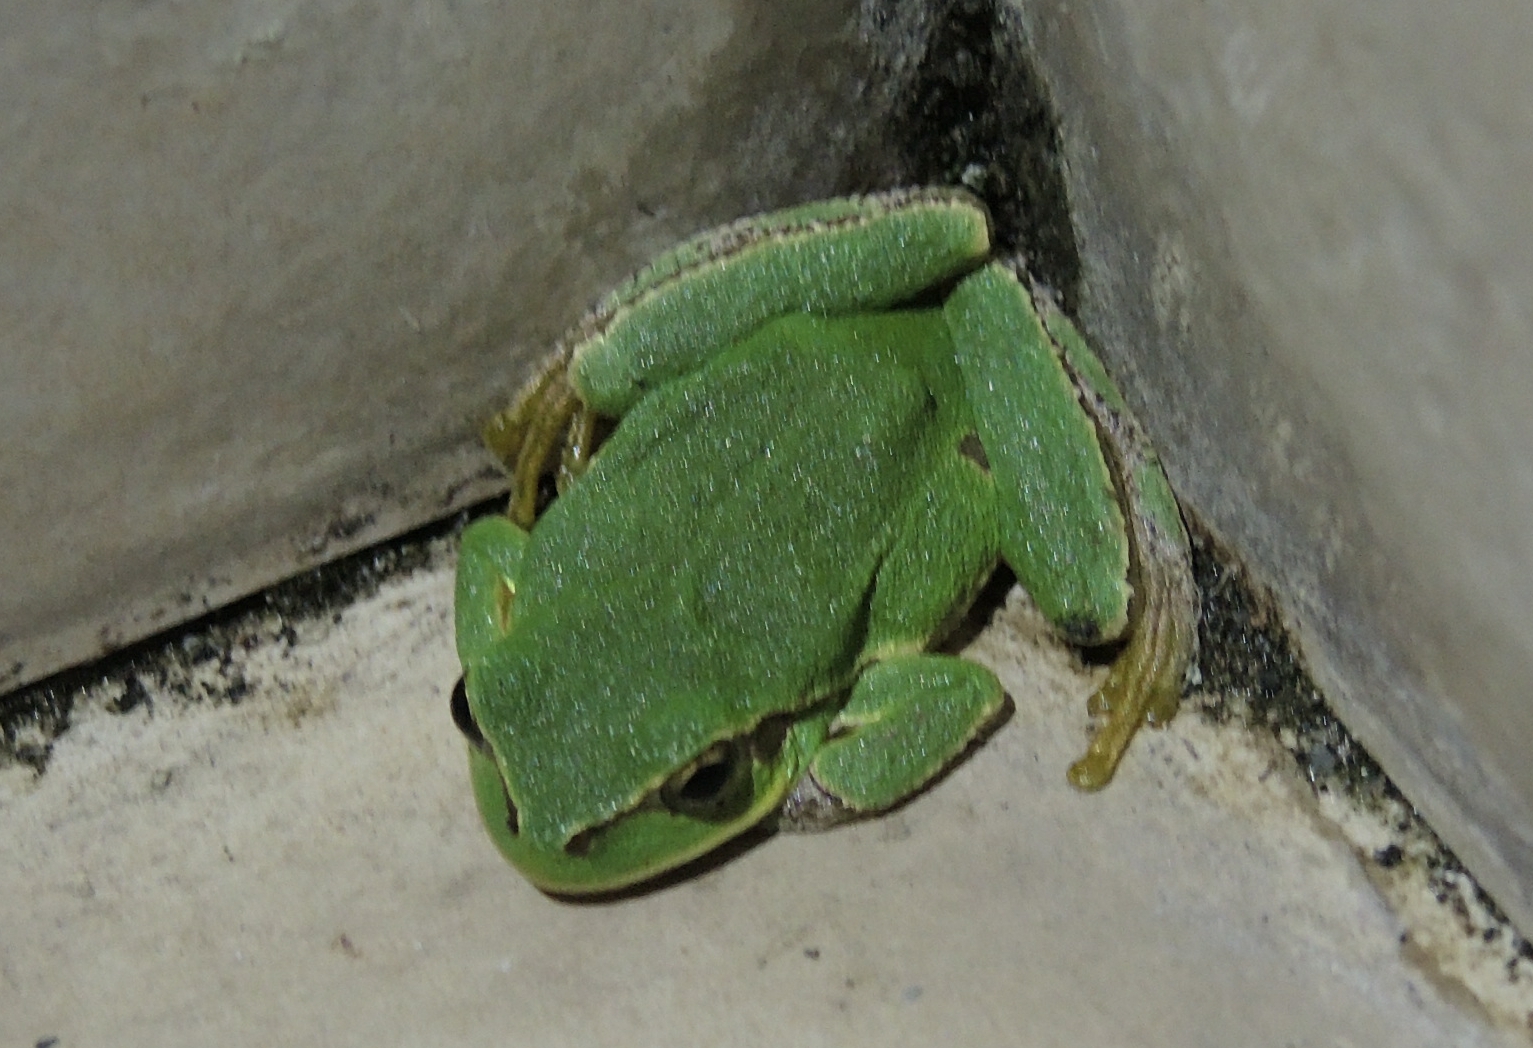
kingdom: Animalia
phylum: Chordata
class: Amphibia
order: Anura
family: Hylidae
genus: Hyla
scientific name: Hyla orientalis
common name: Caucasian treefrog
